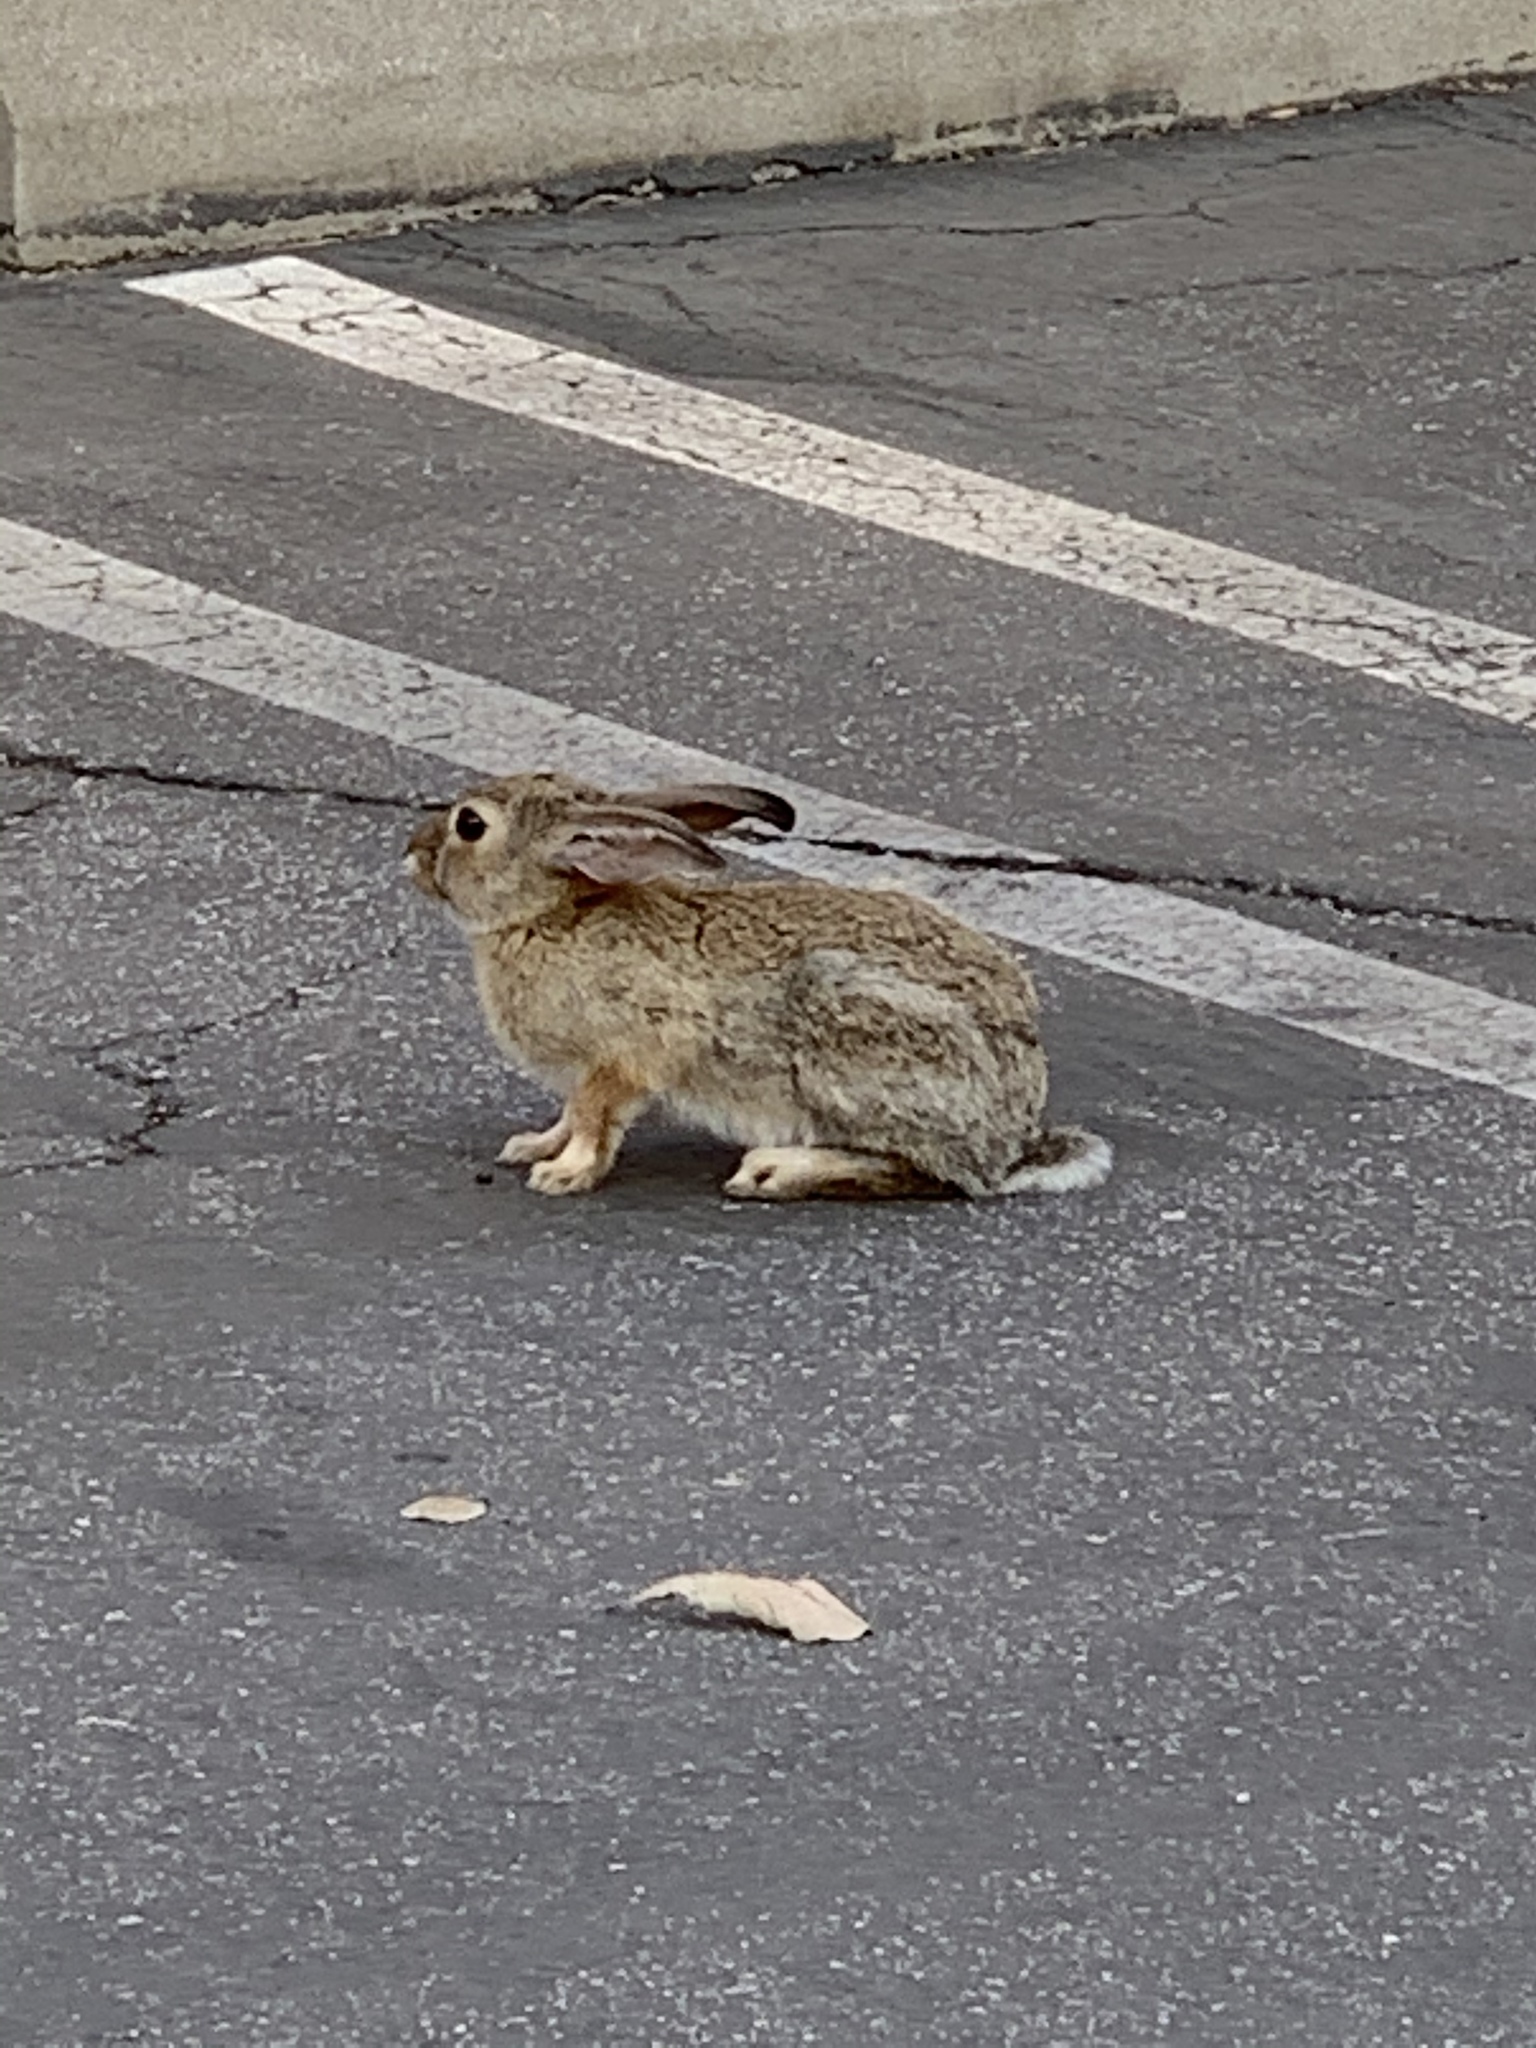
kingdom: Animalia
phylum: Chordata
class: Mammalia
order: Lagomorpha
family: Leporidae
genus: Sylvilagus
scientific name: Sylvilagus audubonii
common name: Desert cottontail
